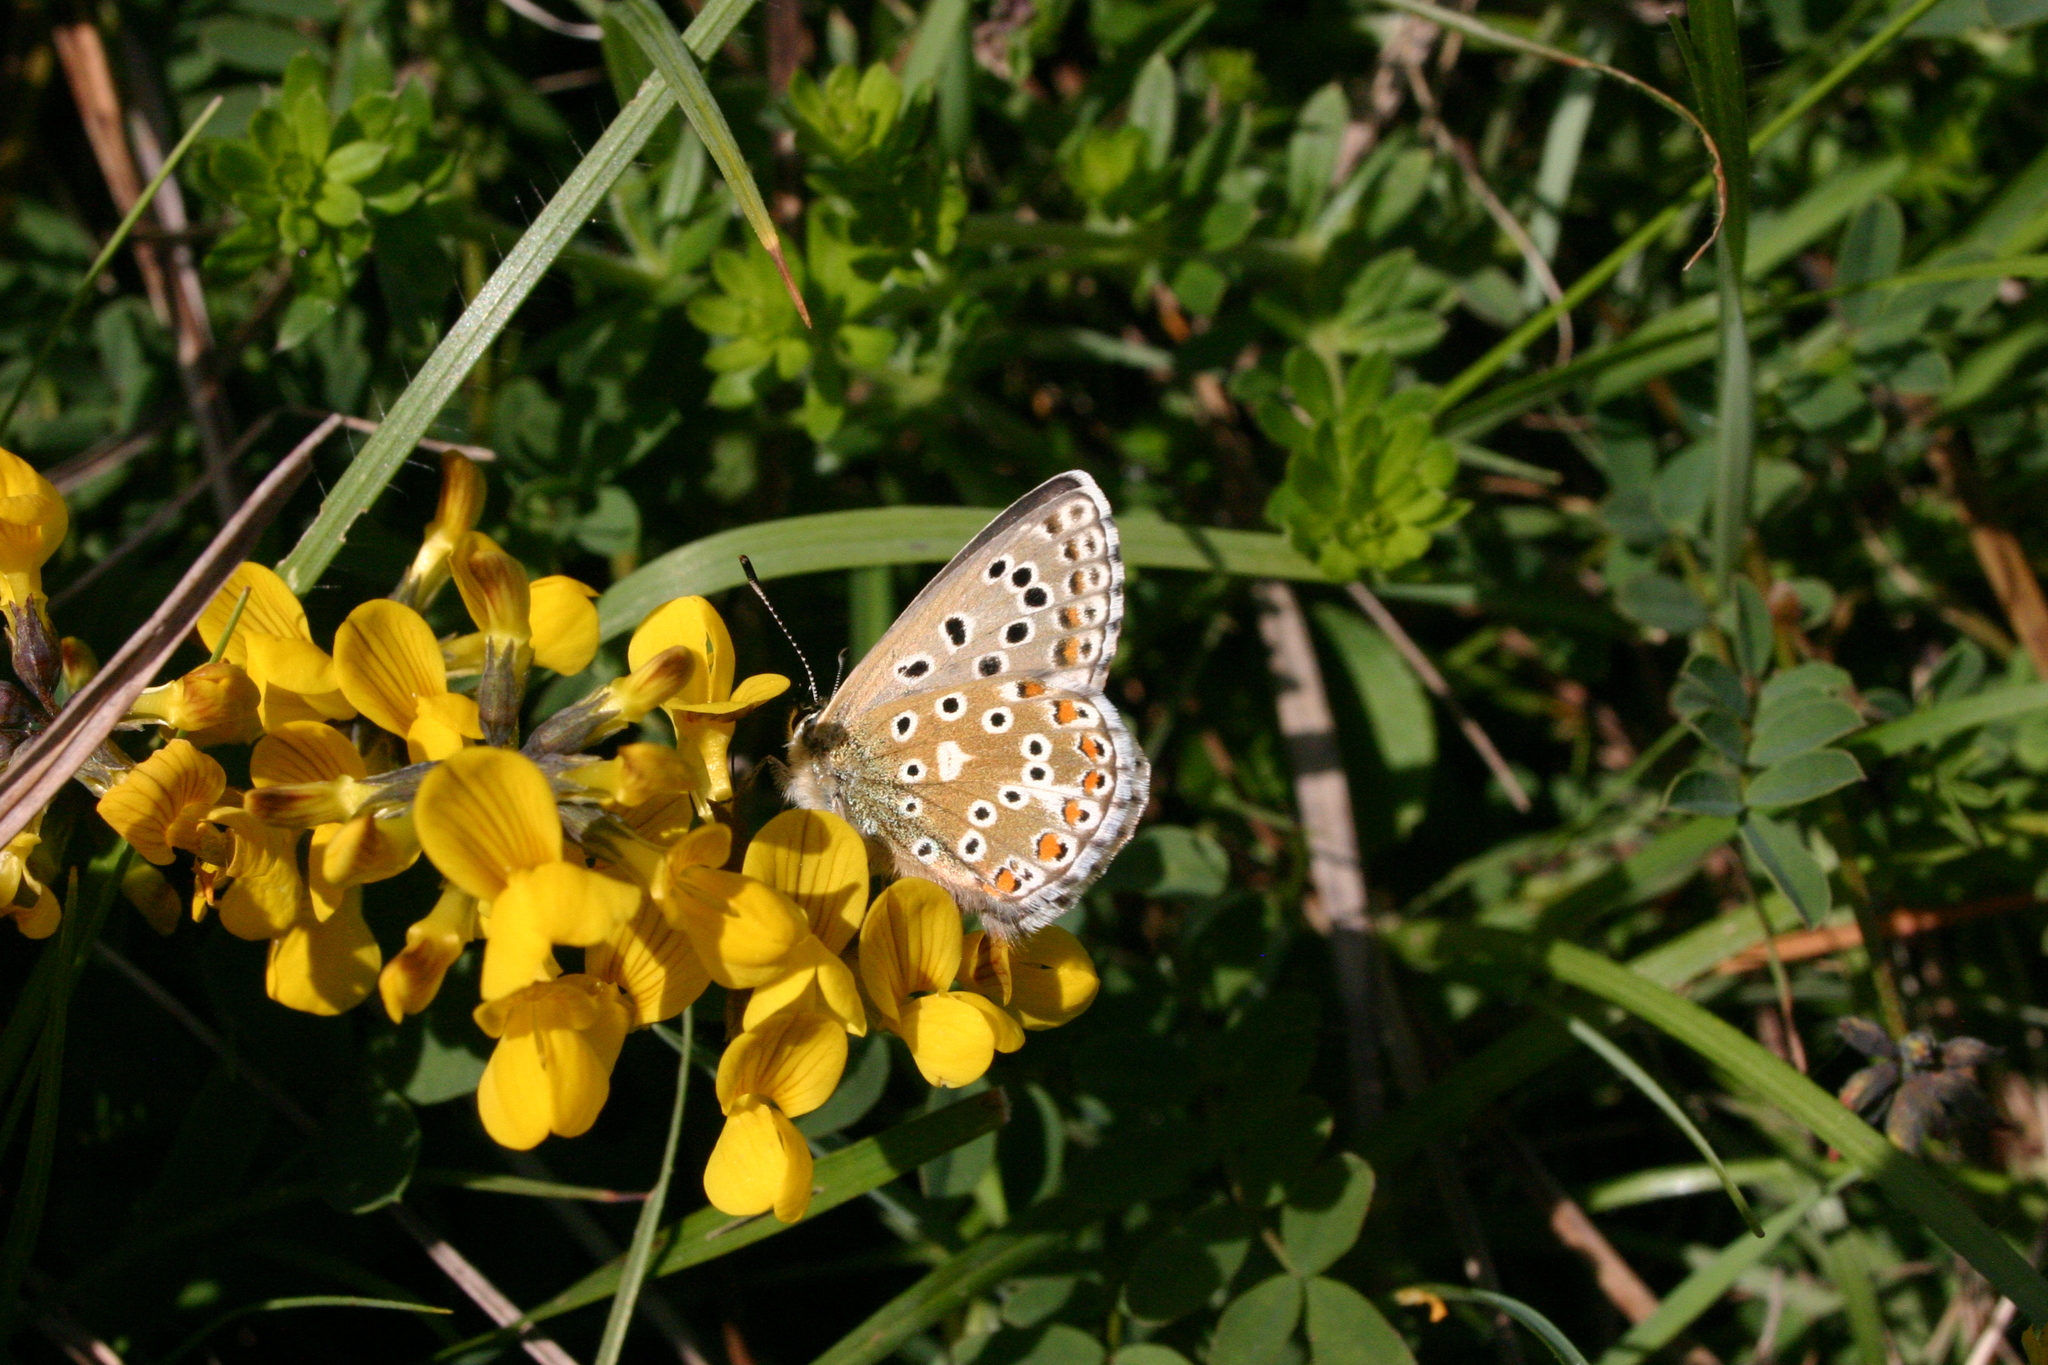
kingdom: Animalia
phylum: Arthropoda
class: Insecta
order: Lepidoptera
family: Lycaenidae
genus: Lysandra
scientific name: Lysandra bellargus
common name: Adonis blue
